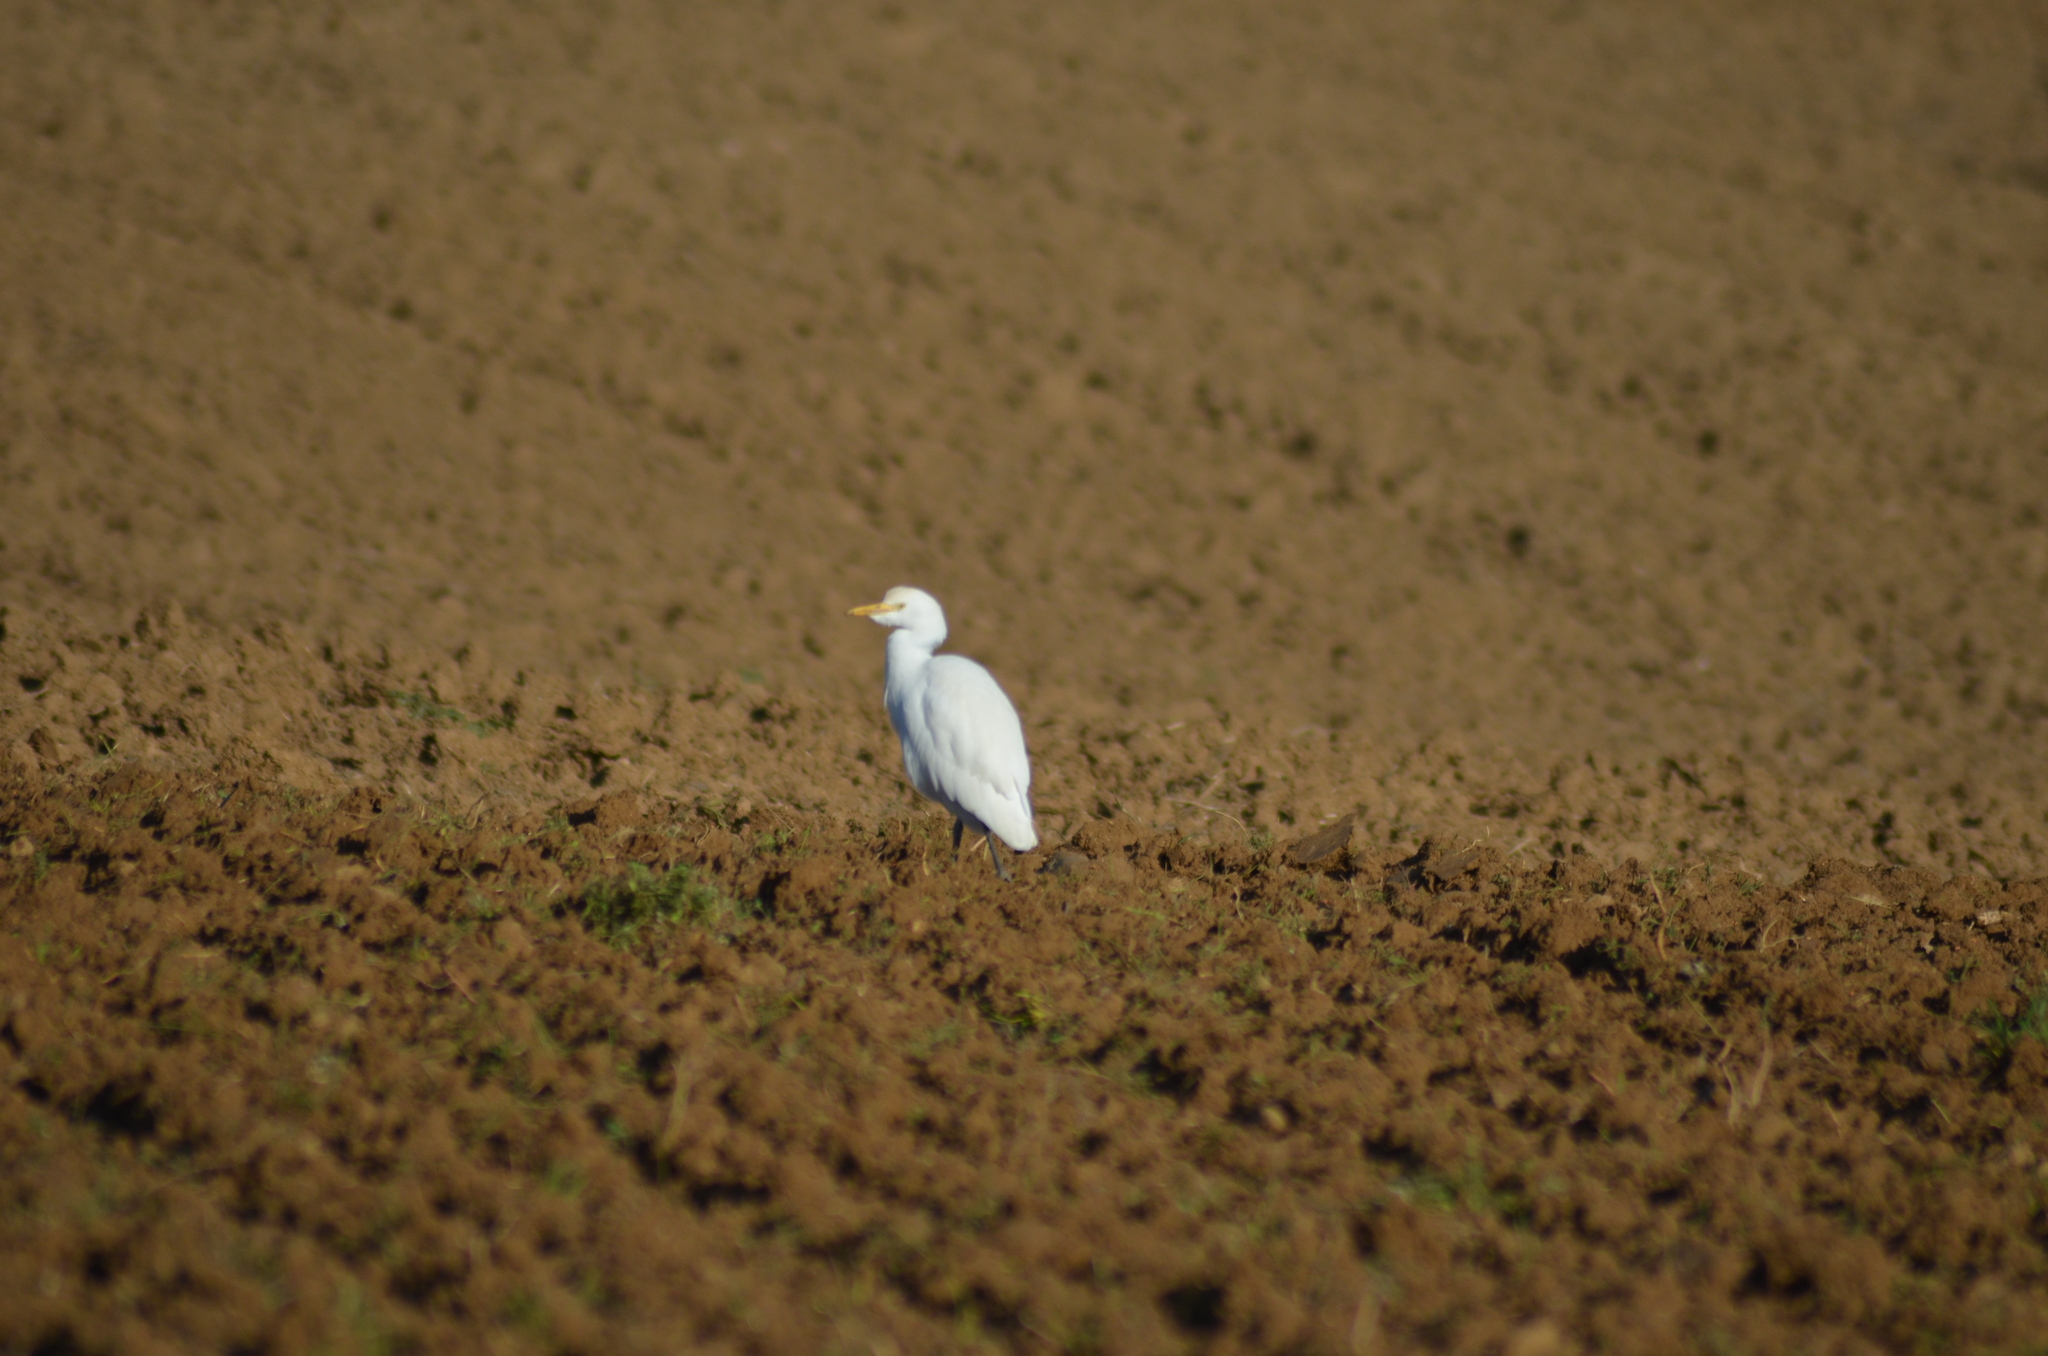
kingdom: Animalia
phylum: Chordata
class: Aves
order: Pelecaniformes
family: Ardeidae
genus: Bubulcus
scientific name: Bubulcus ibis
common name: Cattle egret
